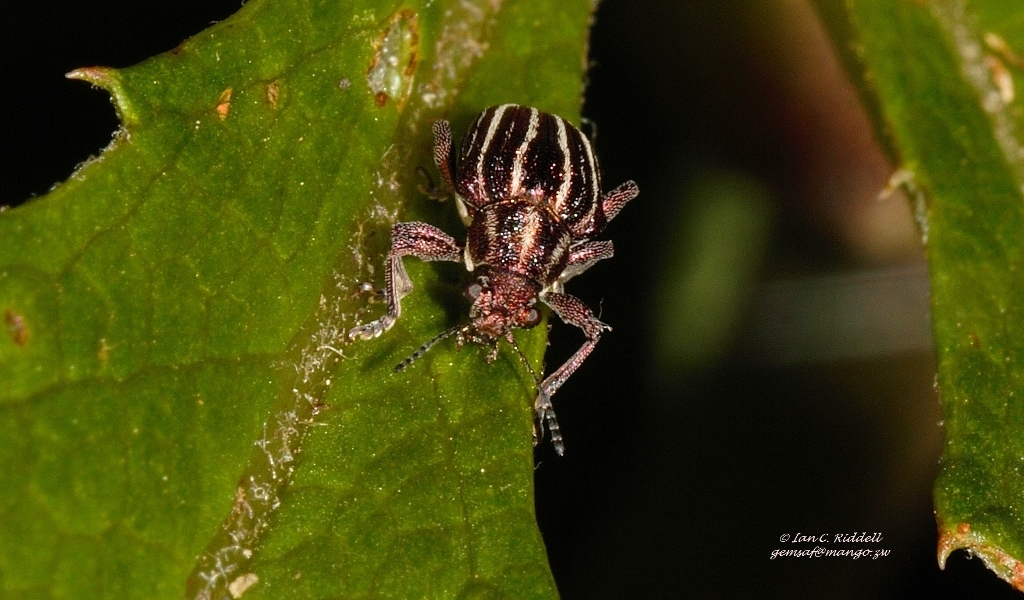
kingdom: Animalia
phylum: Arthropoda
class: Insecta
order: Coleoptera
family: Chrysomelidae
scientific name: Chrysomelidae
